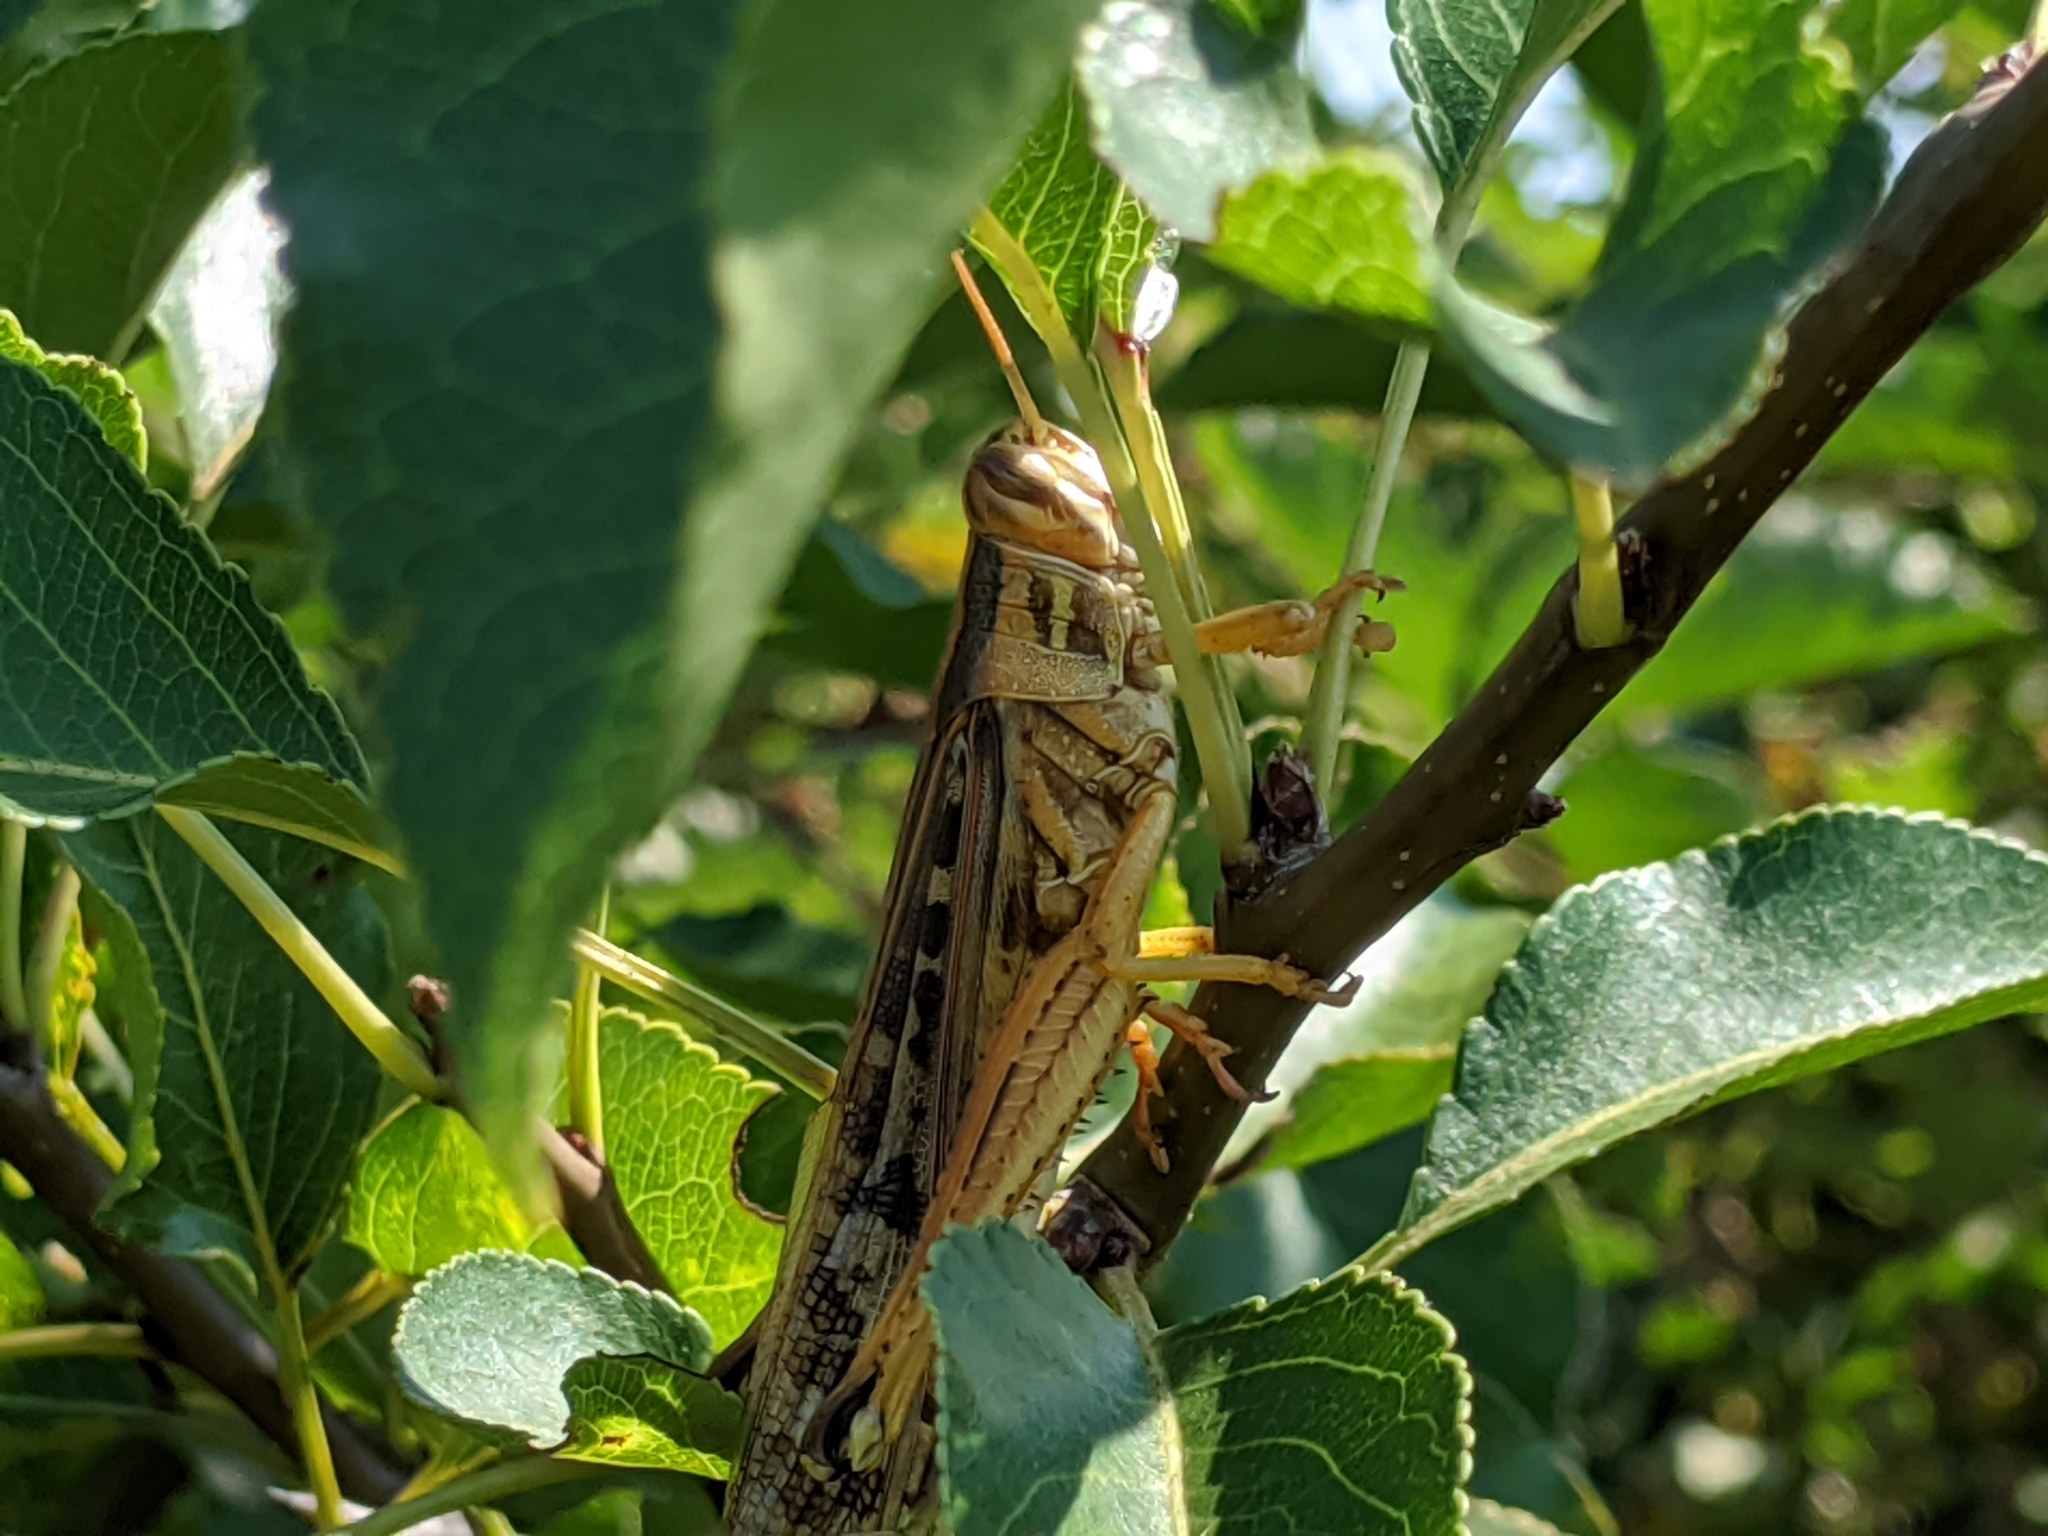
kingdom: Animalia
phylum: Arthropoda
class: Insecta
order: Orthoptera
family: Acrididae
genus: Schistocerca
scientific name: Schistocerca americana
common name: American bird locust
